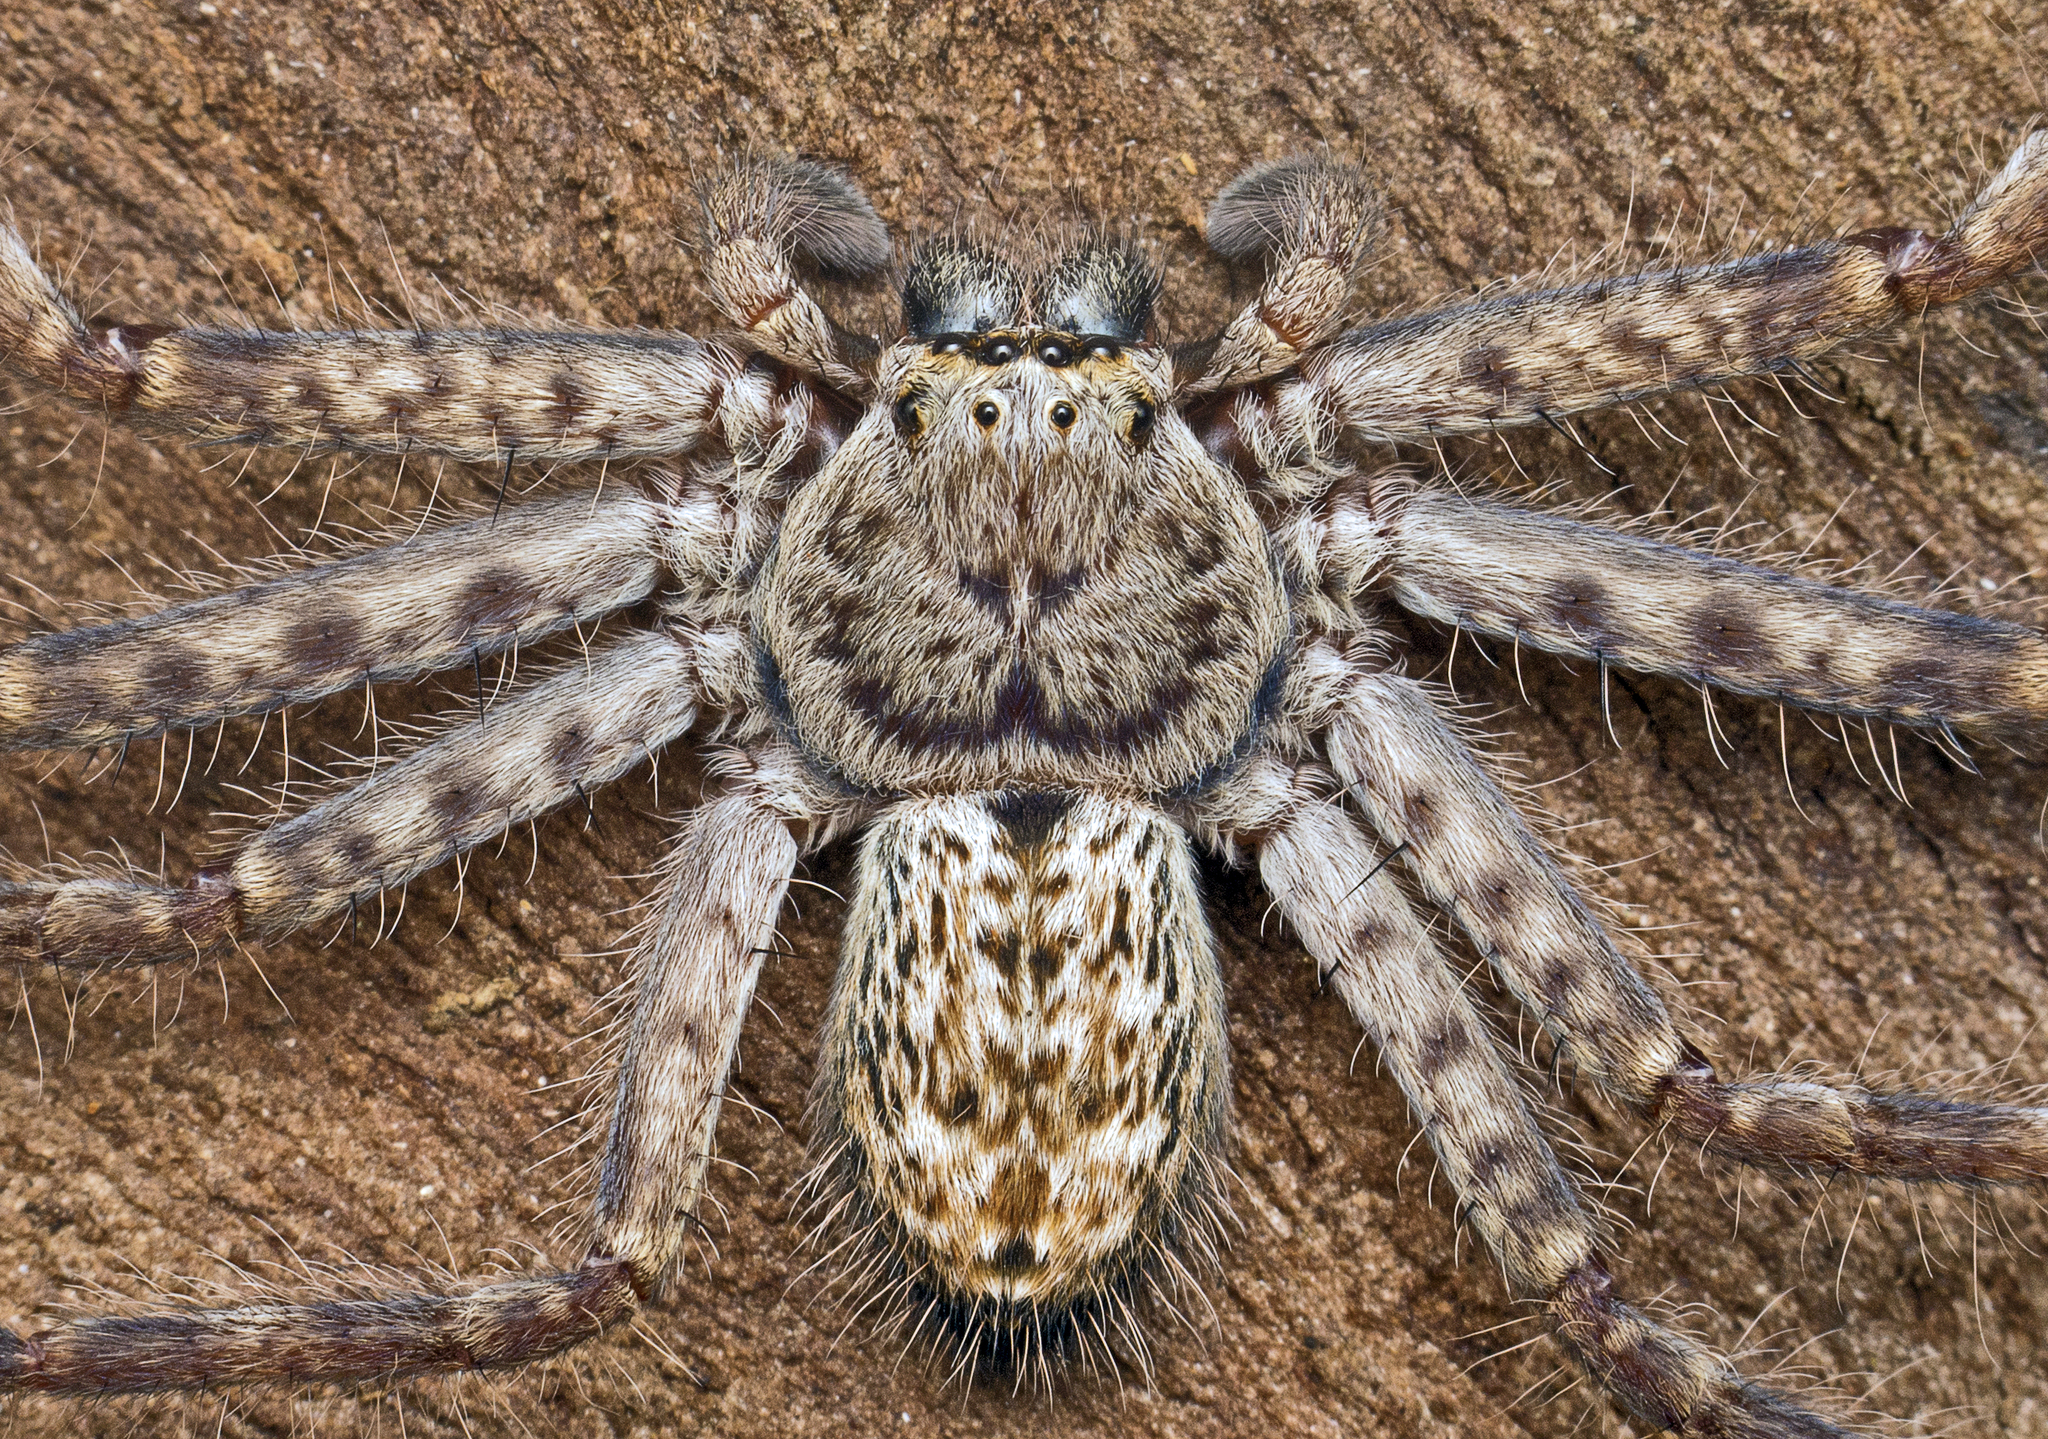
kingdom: Animalia
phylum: Arthropoda
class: Arachnida
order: Araneae
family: Sparassidae
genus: Holconia
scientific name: Holconia insignis
